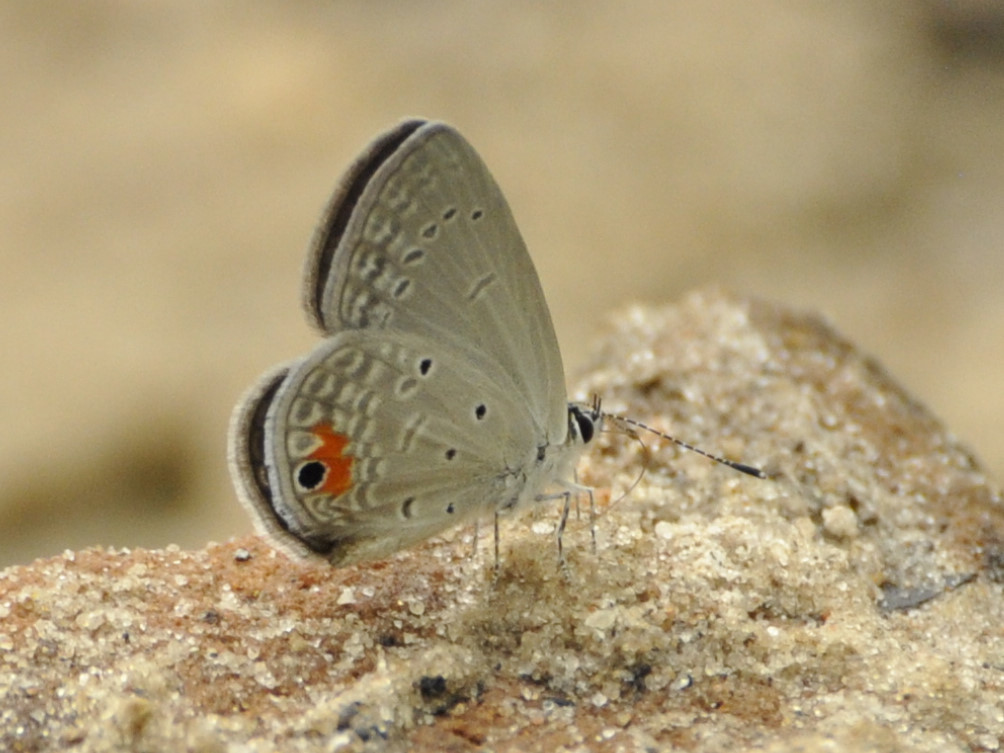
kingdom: Animalia
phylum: Arthropoda
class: Insecta
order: Lepidoptera
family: Lycaenidae
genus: Eicochrysops
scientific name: Eicochrysops messapus
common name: Cupreous blue
